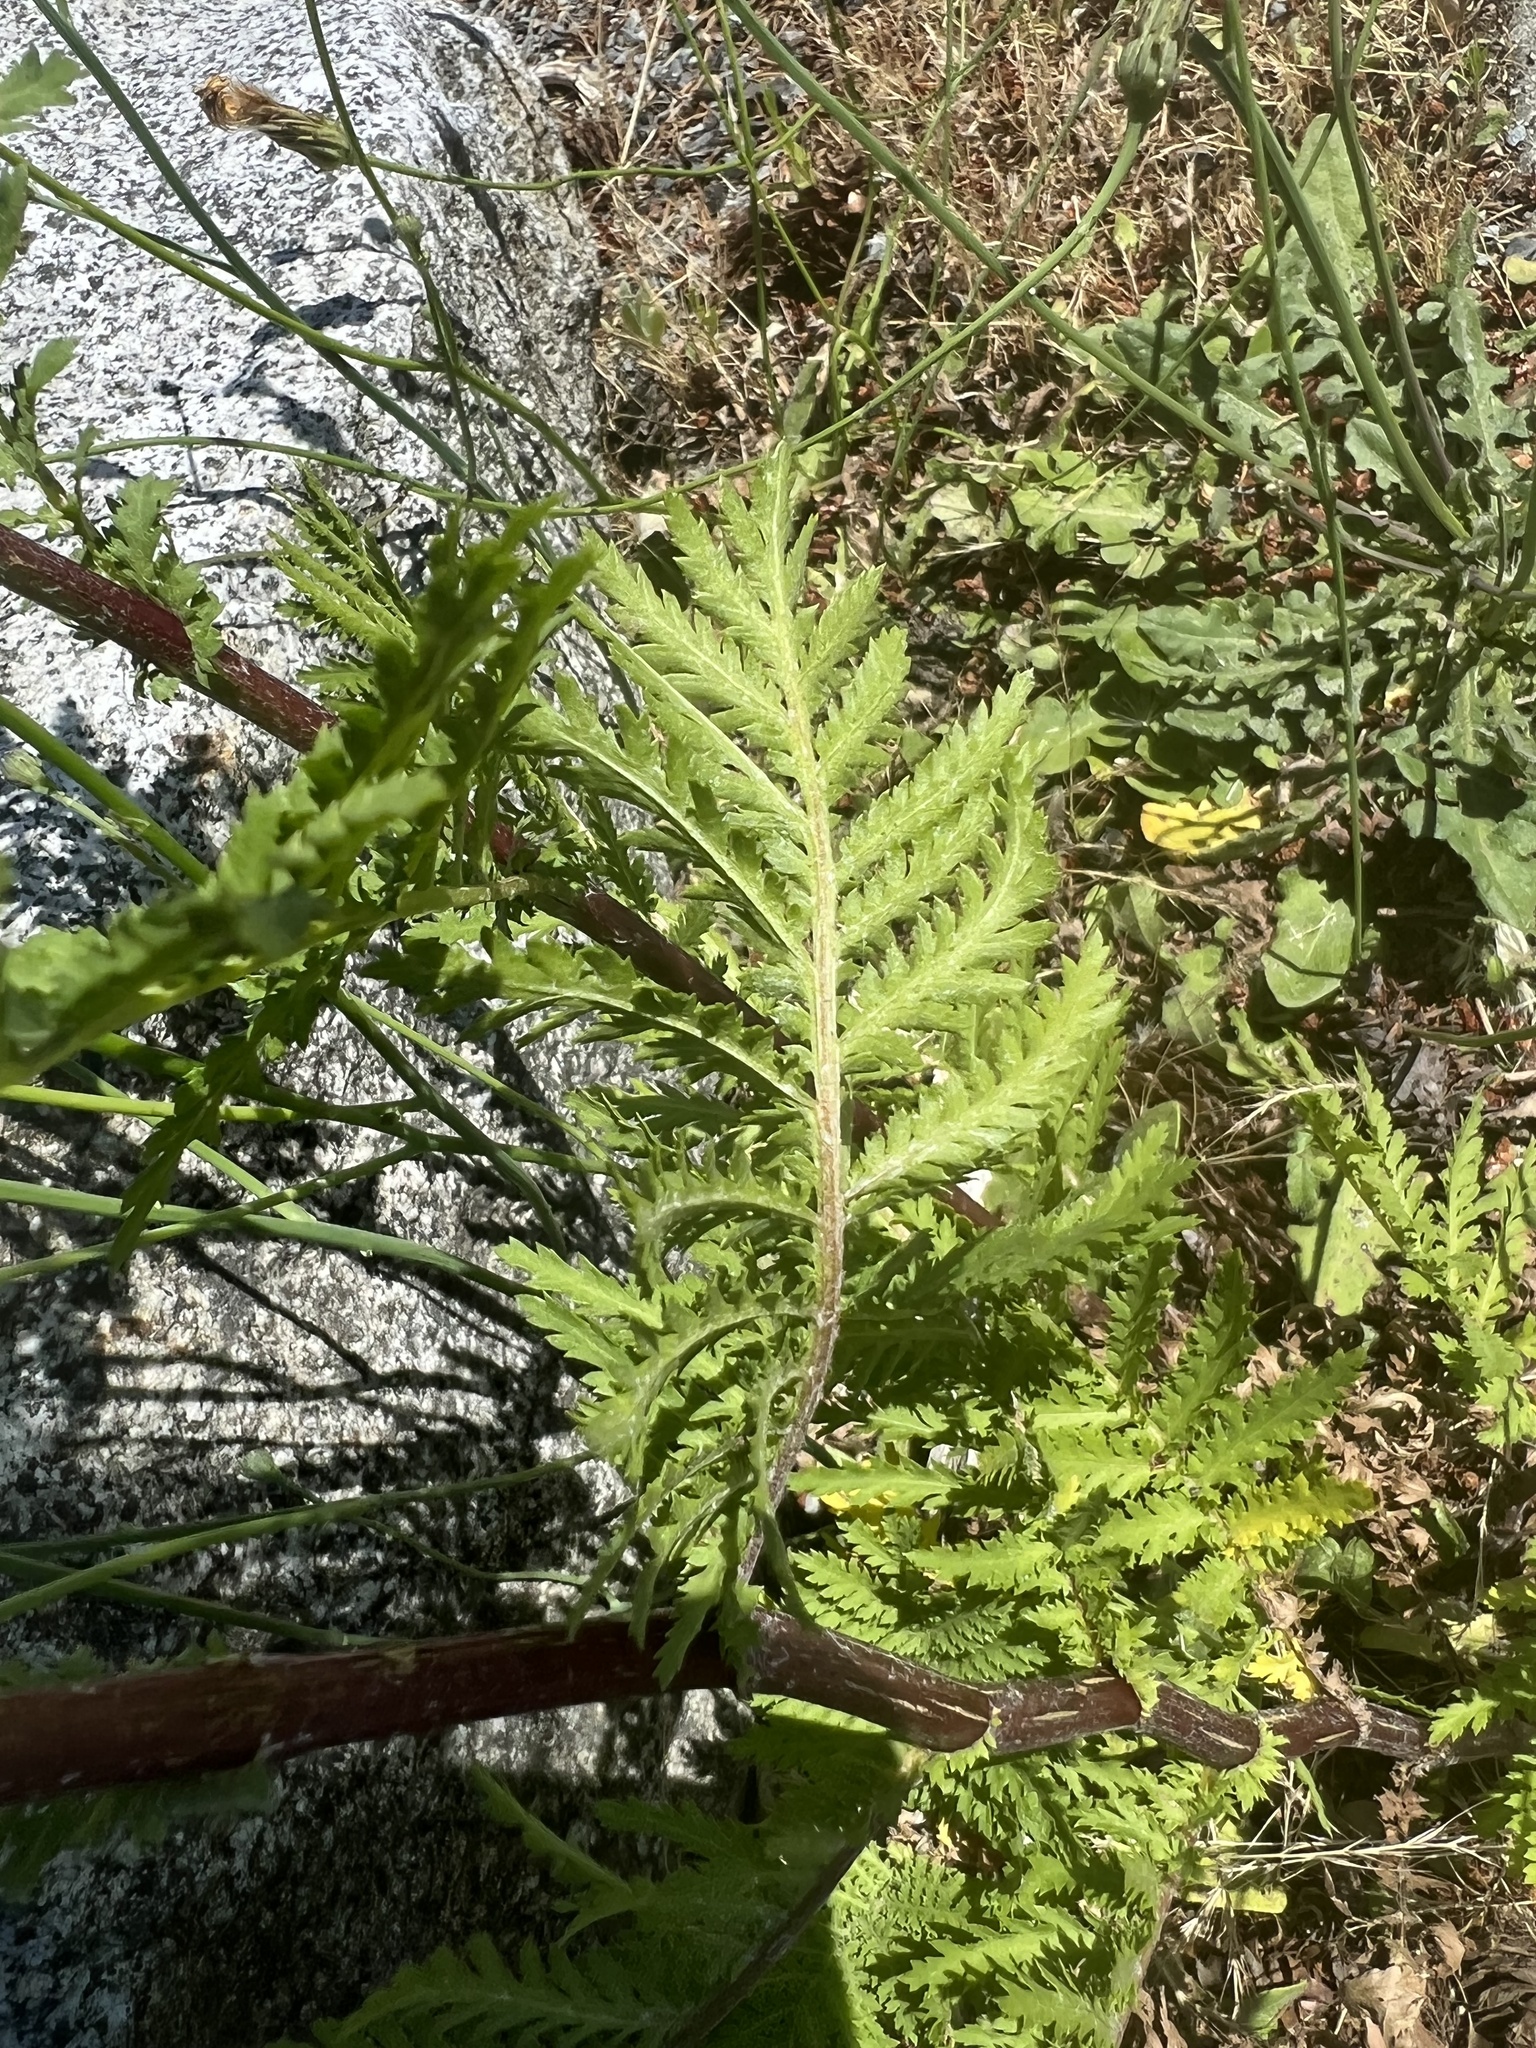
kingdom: Plantae
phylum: Tracheophyta
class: Magnoliopsida
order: Asterales
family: Asteraceae
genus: Tanacetum
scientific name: Tanacetum vulgare
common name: Common tansy
